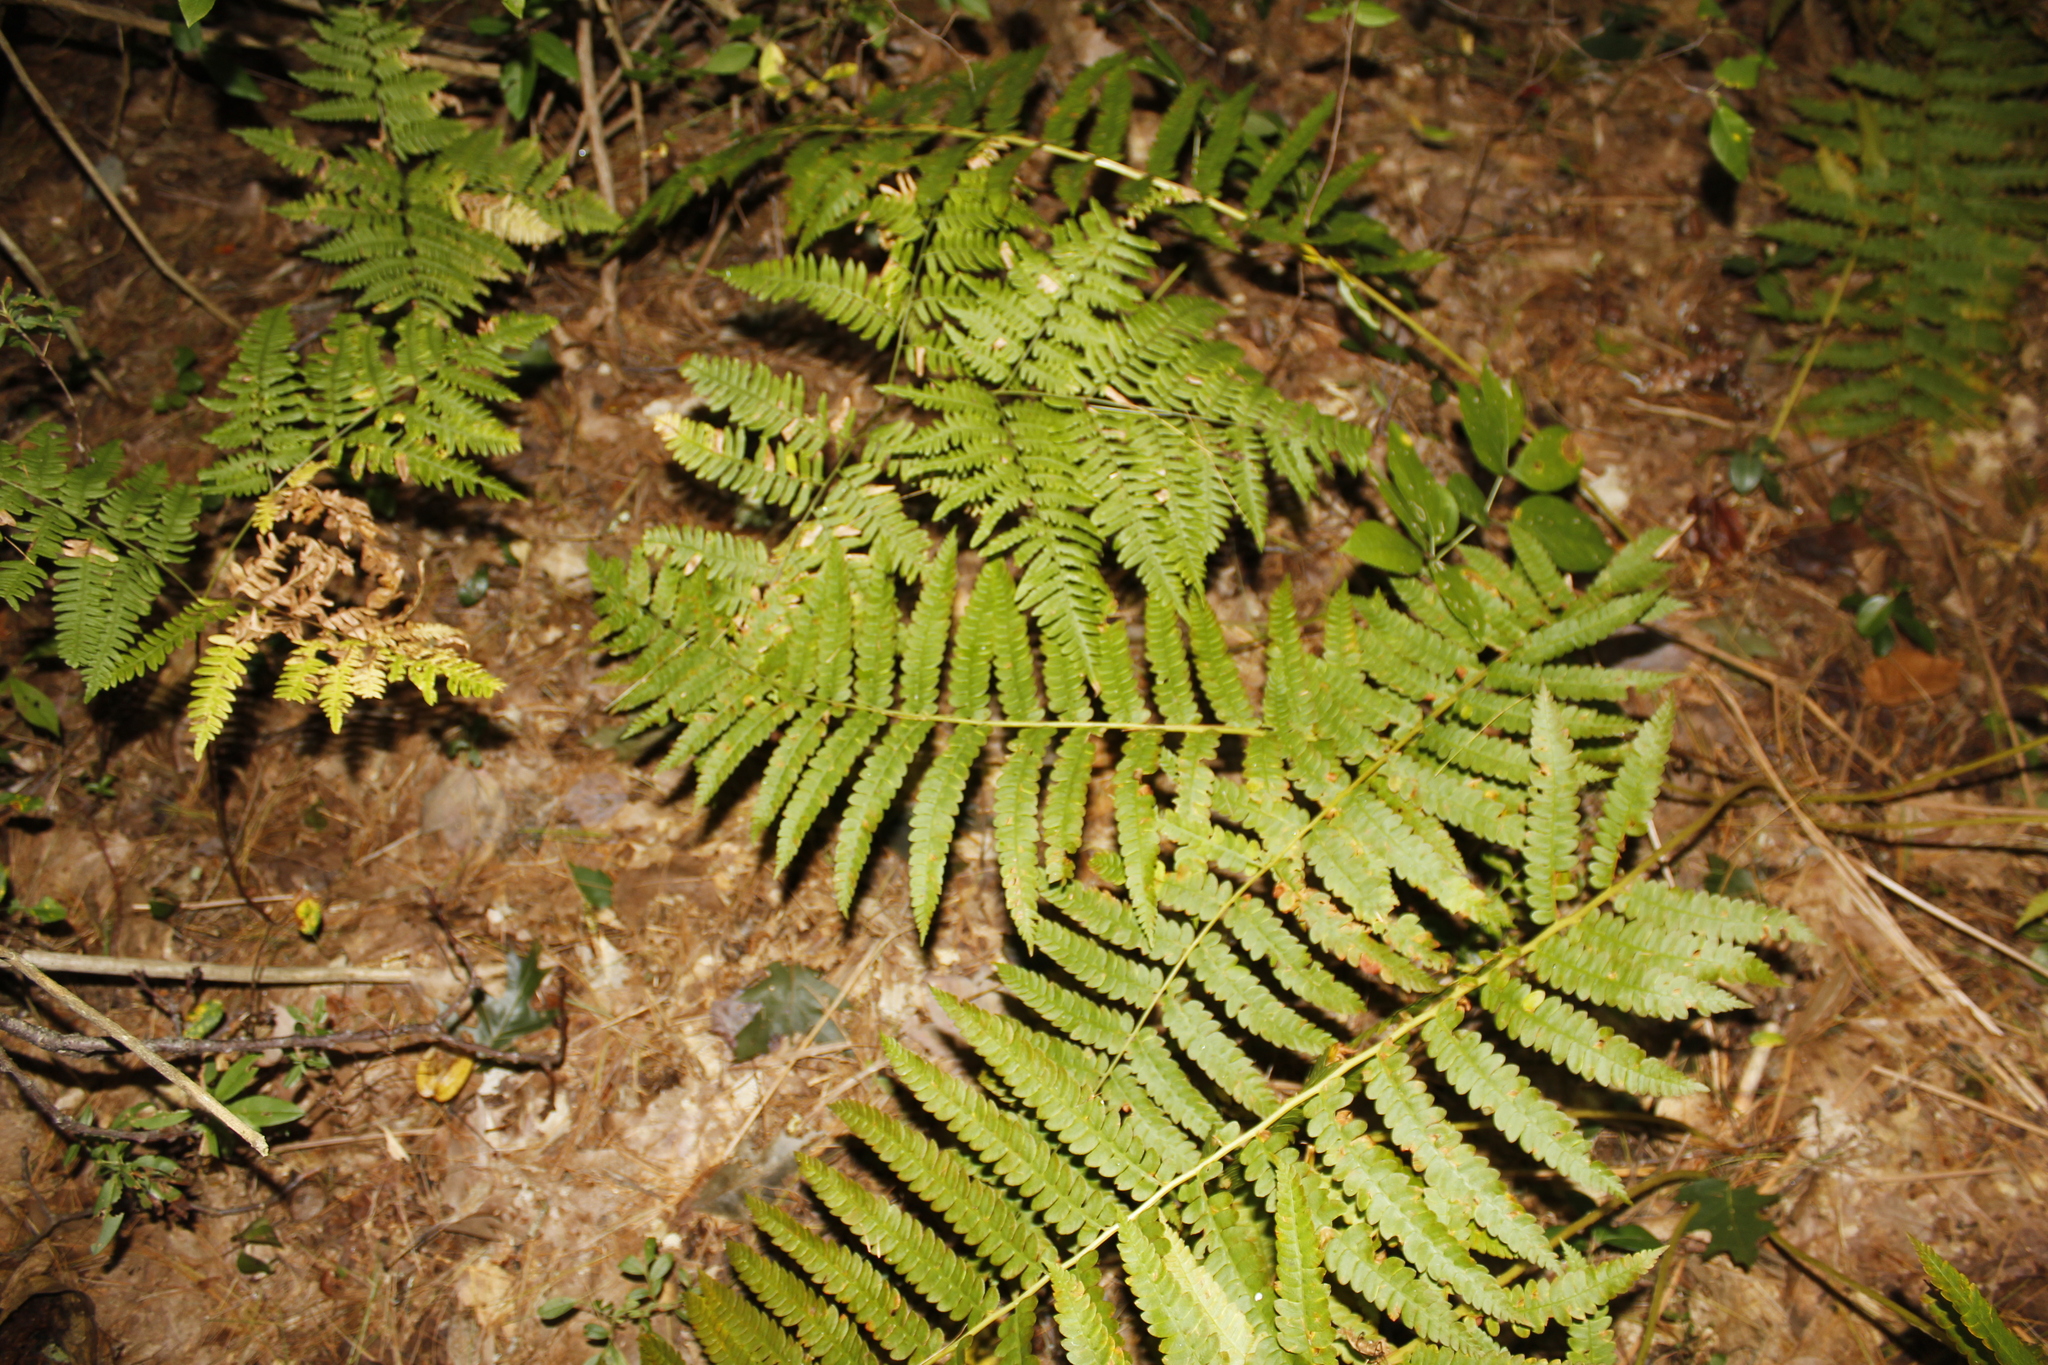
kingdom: Plantae
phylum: Tracheophyta
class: Polypodiopsida
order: Osmundales
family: Osmundaceae
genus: Osmundastrum
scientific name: Osmundastrum cinnamomeum
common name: Cinnamon fern
